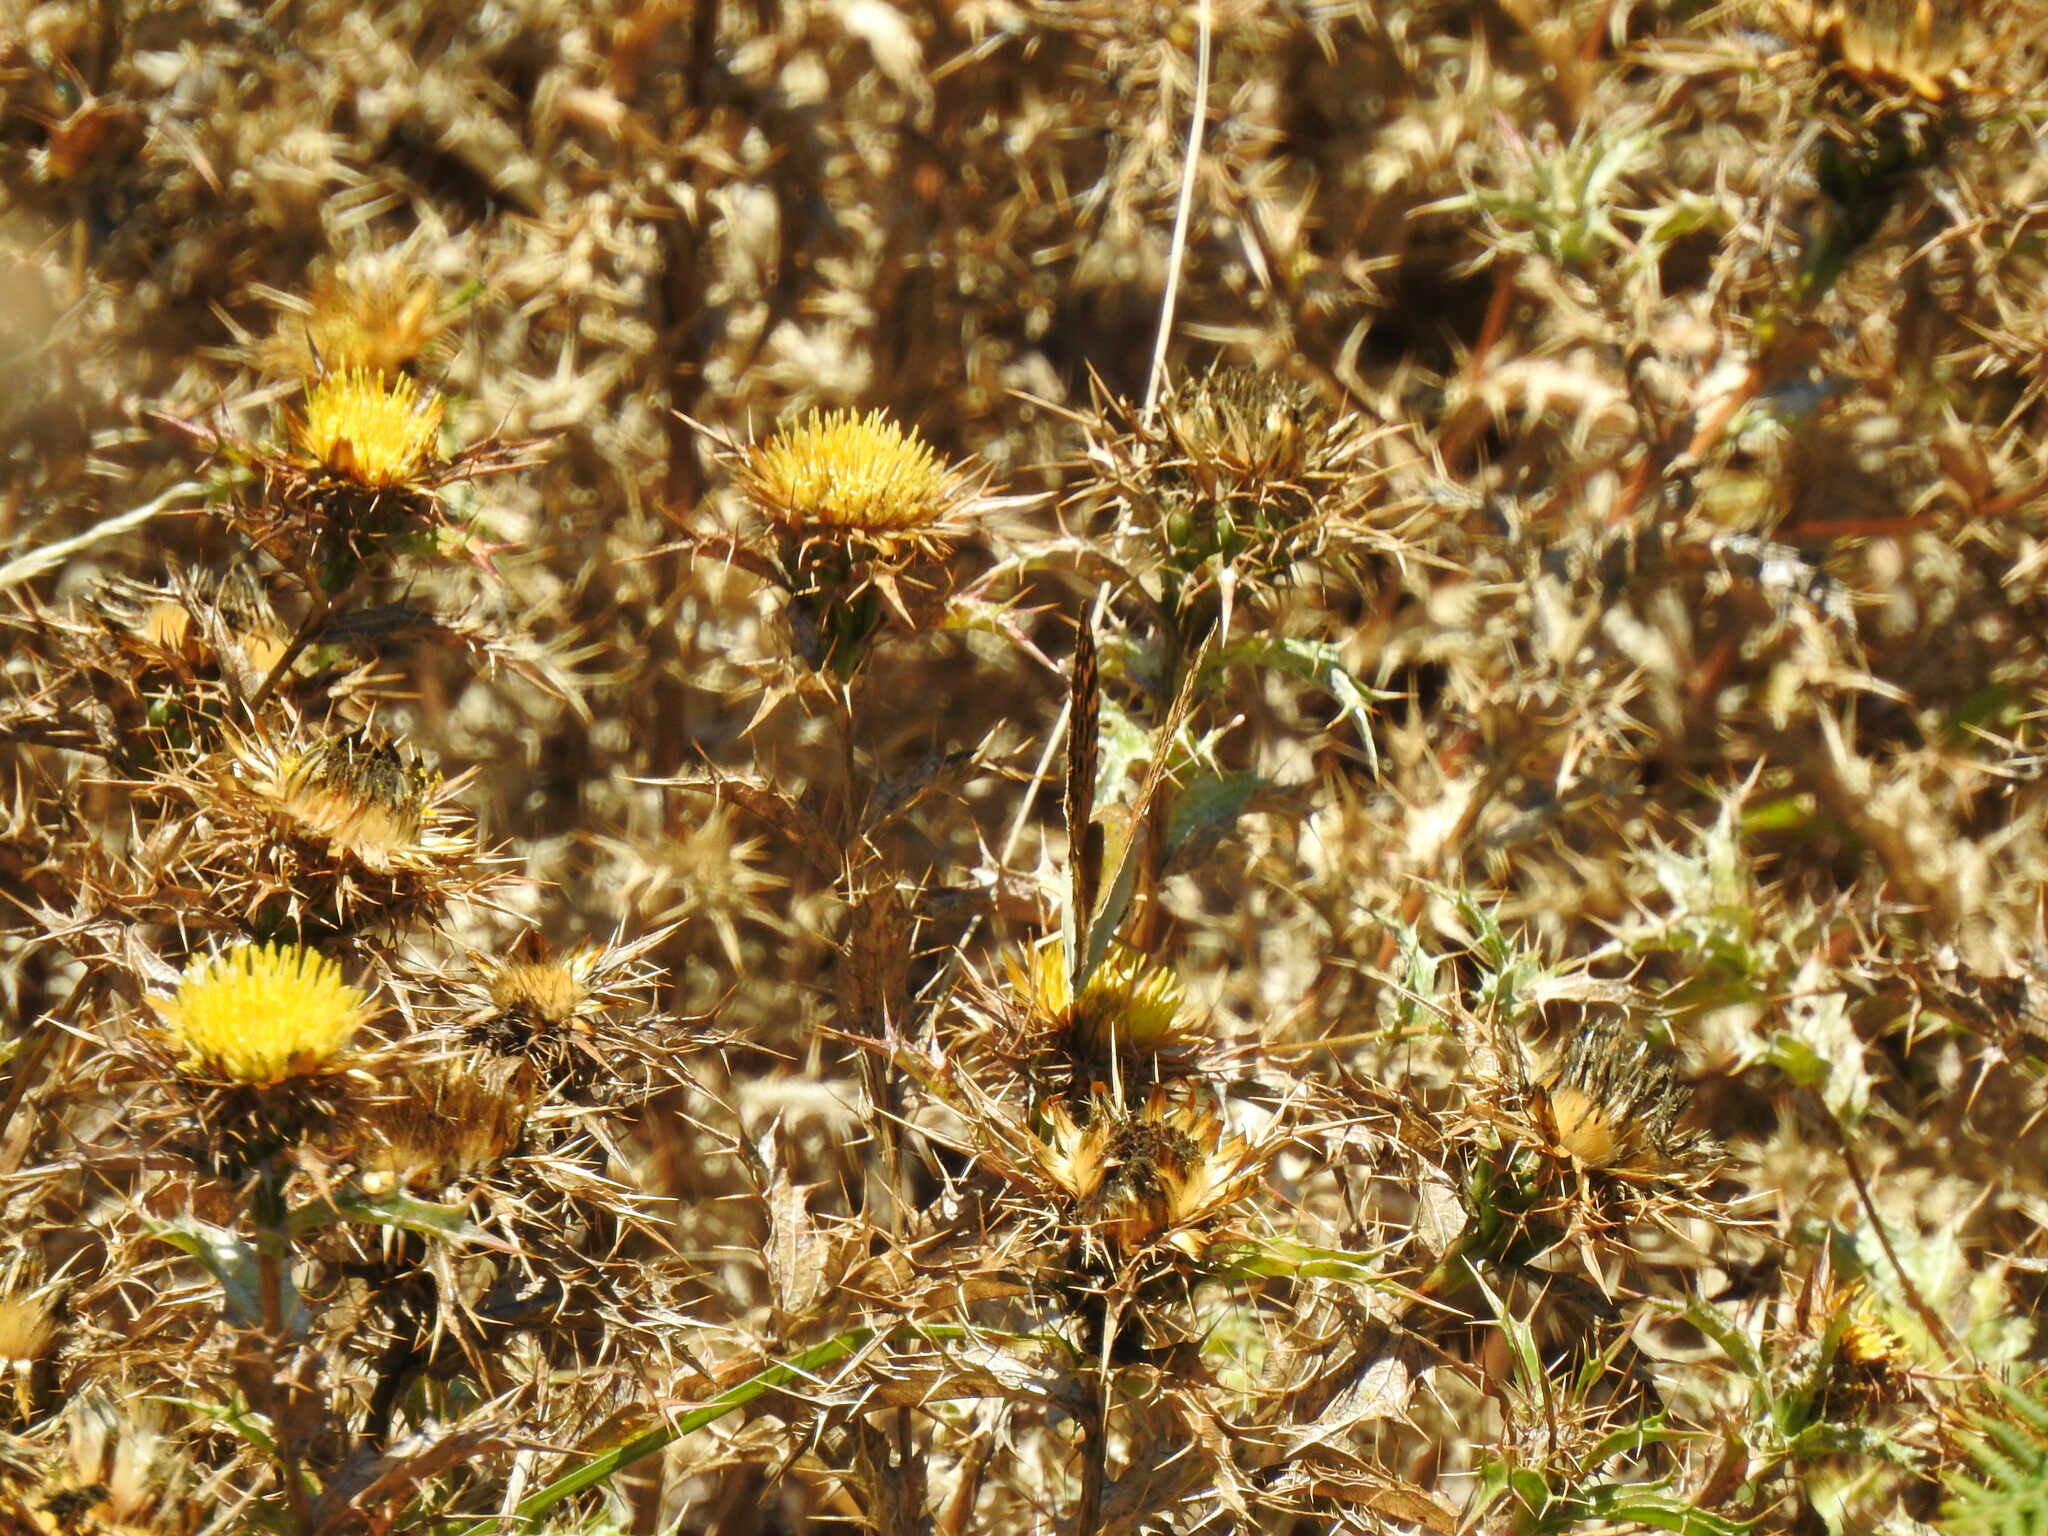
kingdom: Plantae
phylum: Tracheophyta
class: Magnoliopsida
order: Asterales
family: Asteraceae
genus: Carlina
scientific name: Carlina hispanica
